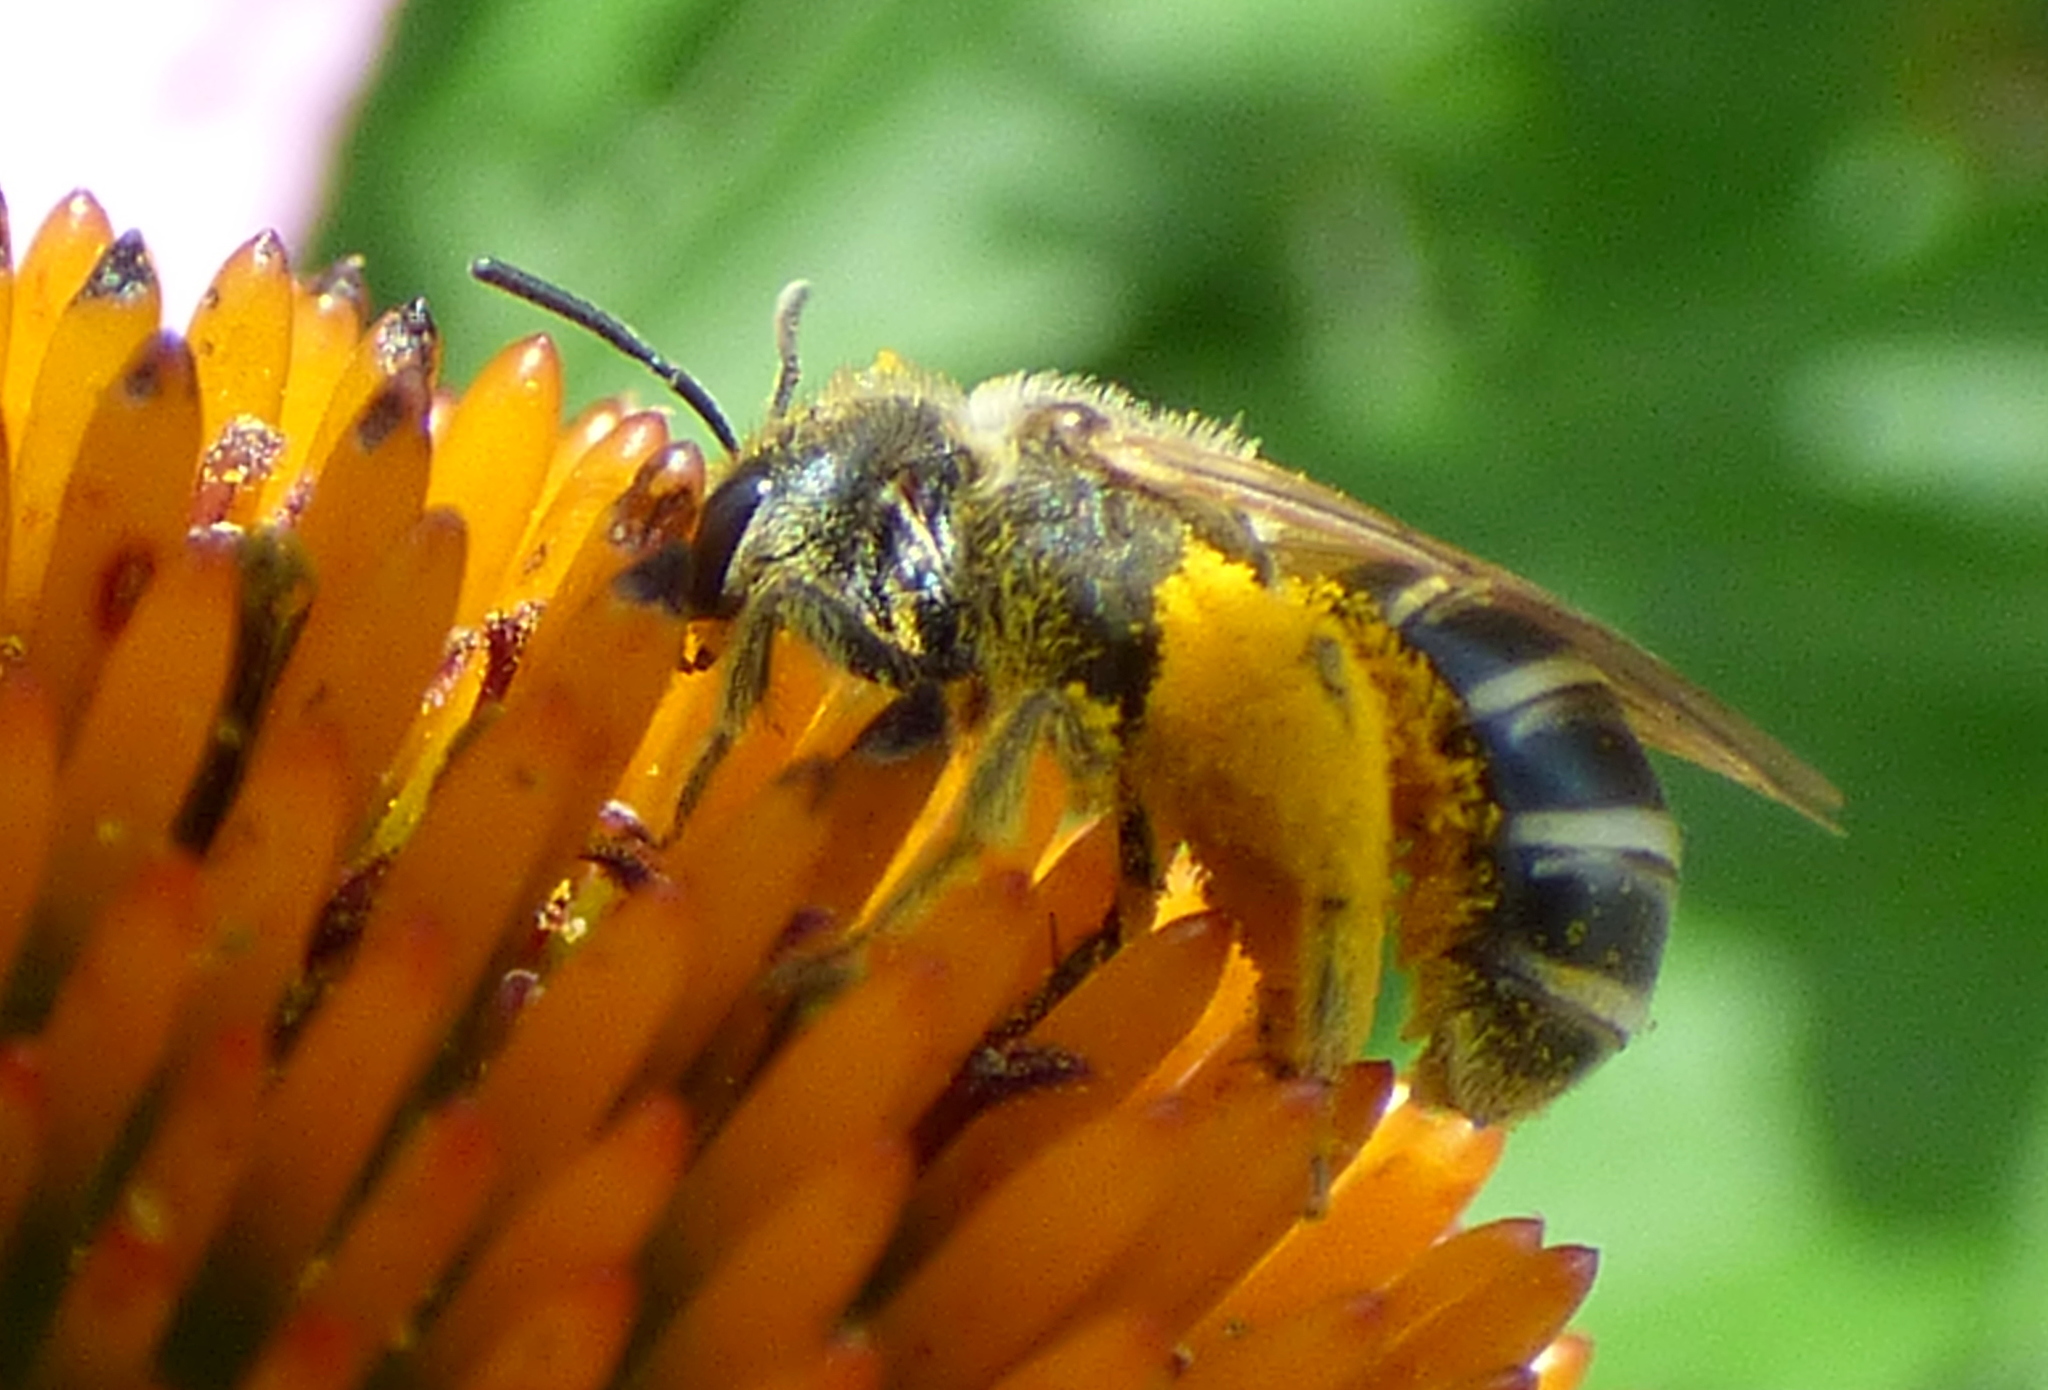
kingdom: Animalia
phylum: Arthropoda
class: Insecta
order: Hymenoptera
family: Halictidae
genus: Halictus
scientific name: Halictus ligatus
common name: Ligated furrow bee
